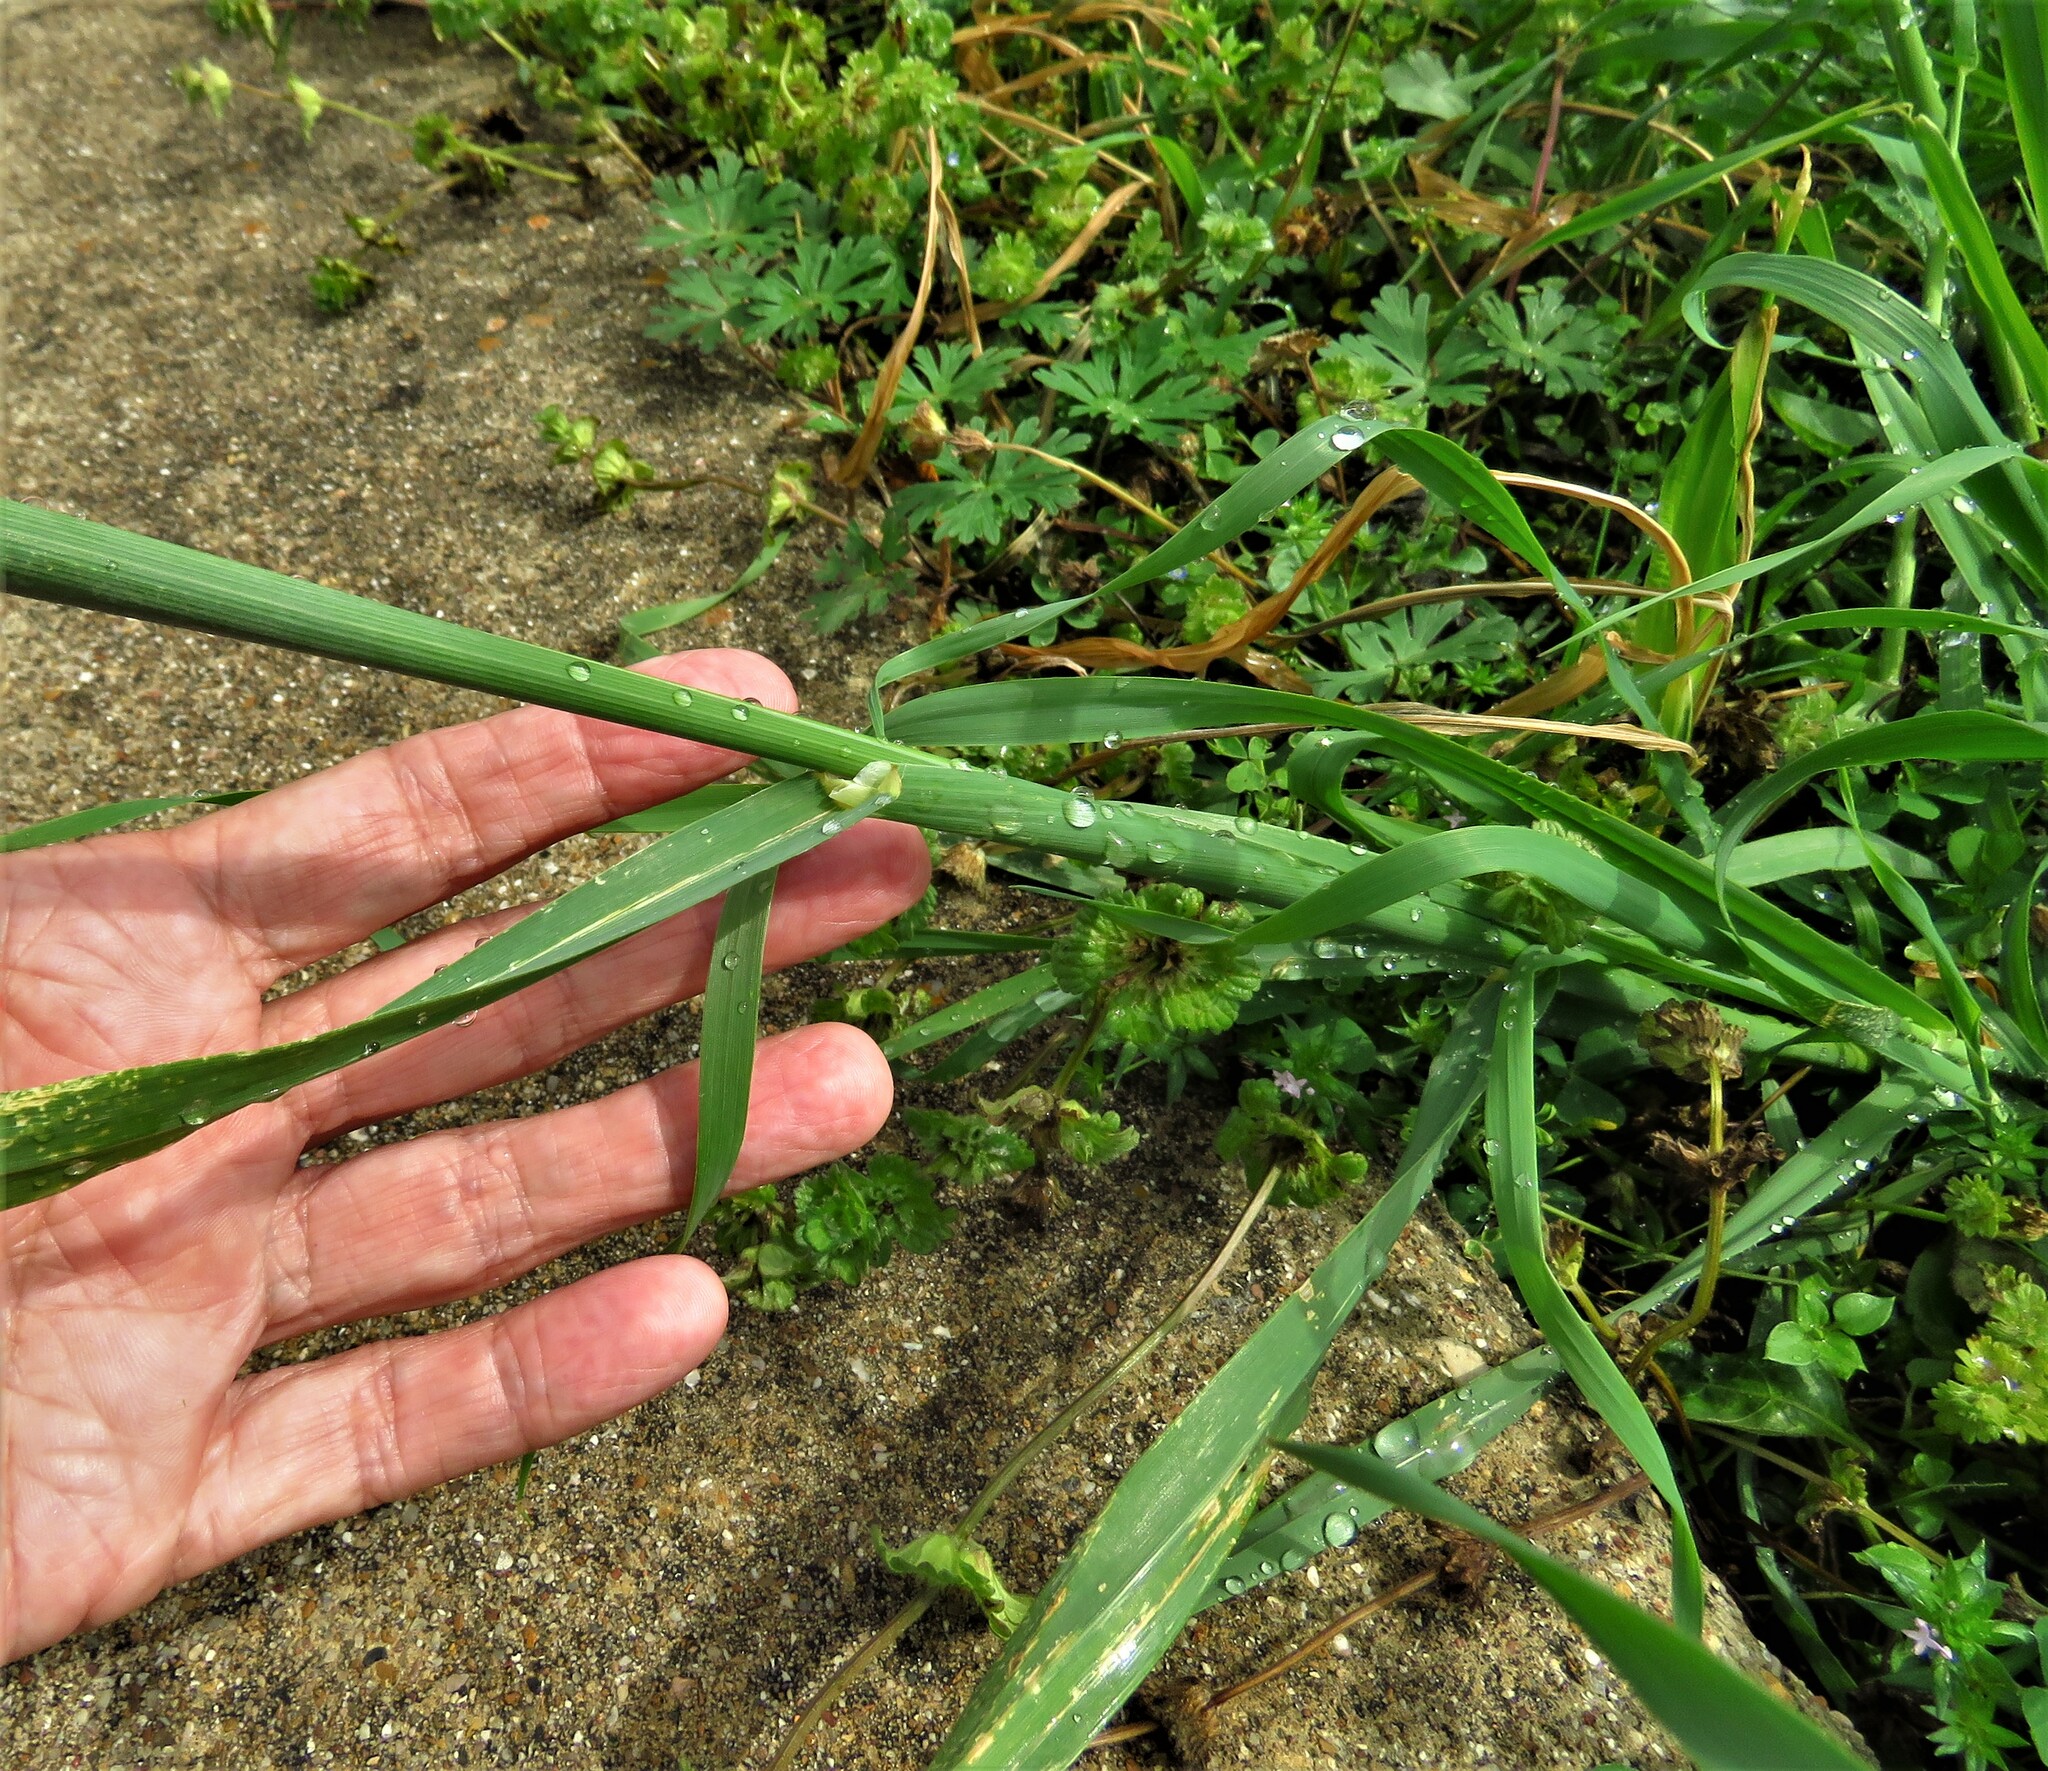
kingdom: Plantae
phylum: Tracheophyta
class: Liliopsida
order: Poales
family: Poaceae
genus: Avena
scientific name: Avena fatua
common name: Wild oat
